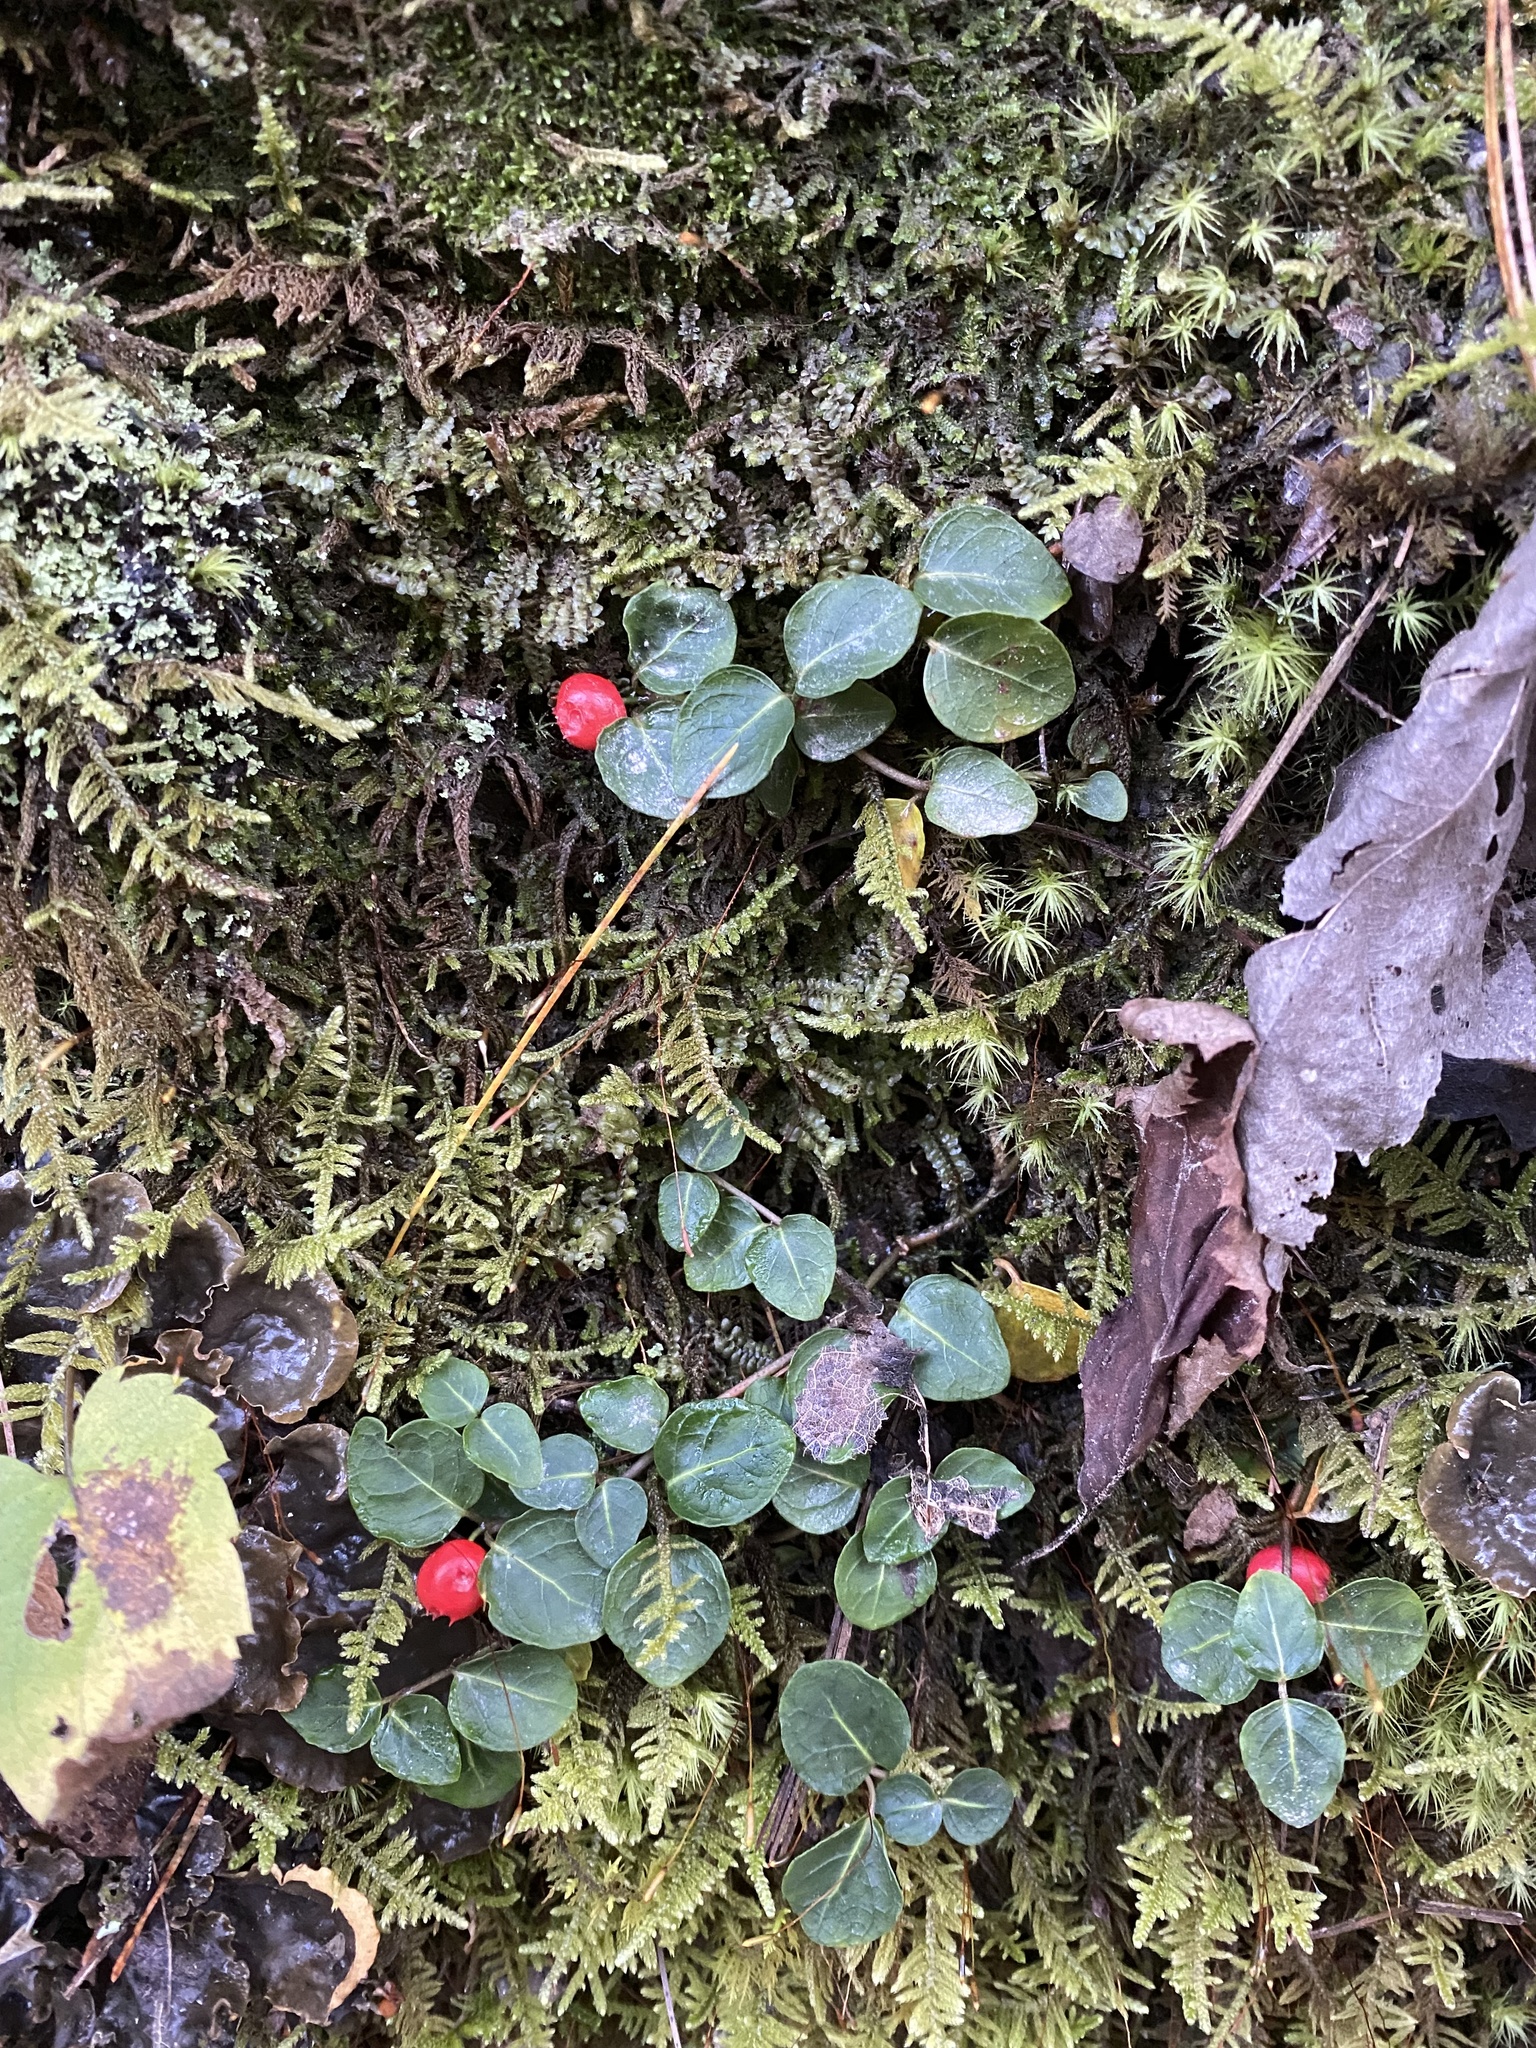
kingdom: Plantae
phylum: Tracheophyta
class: Magnoliopsida
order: Gentianales
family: Rubiaceae
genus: Mitchella
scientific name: Mitchella repens
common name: Partridge-berry
